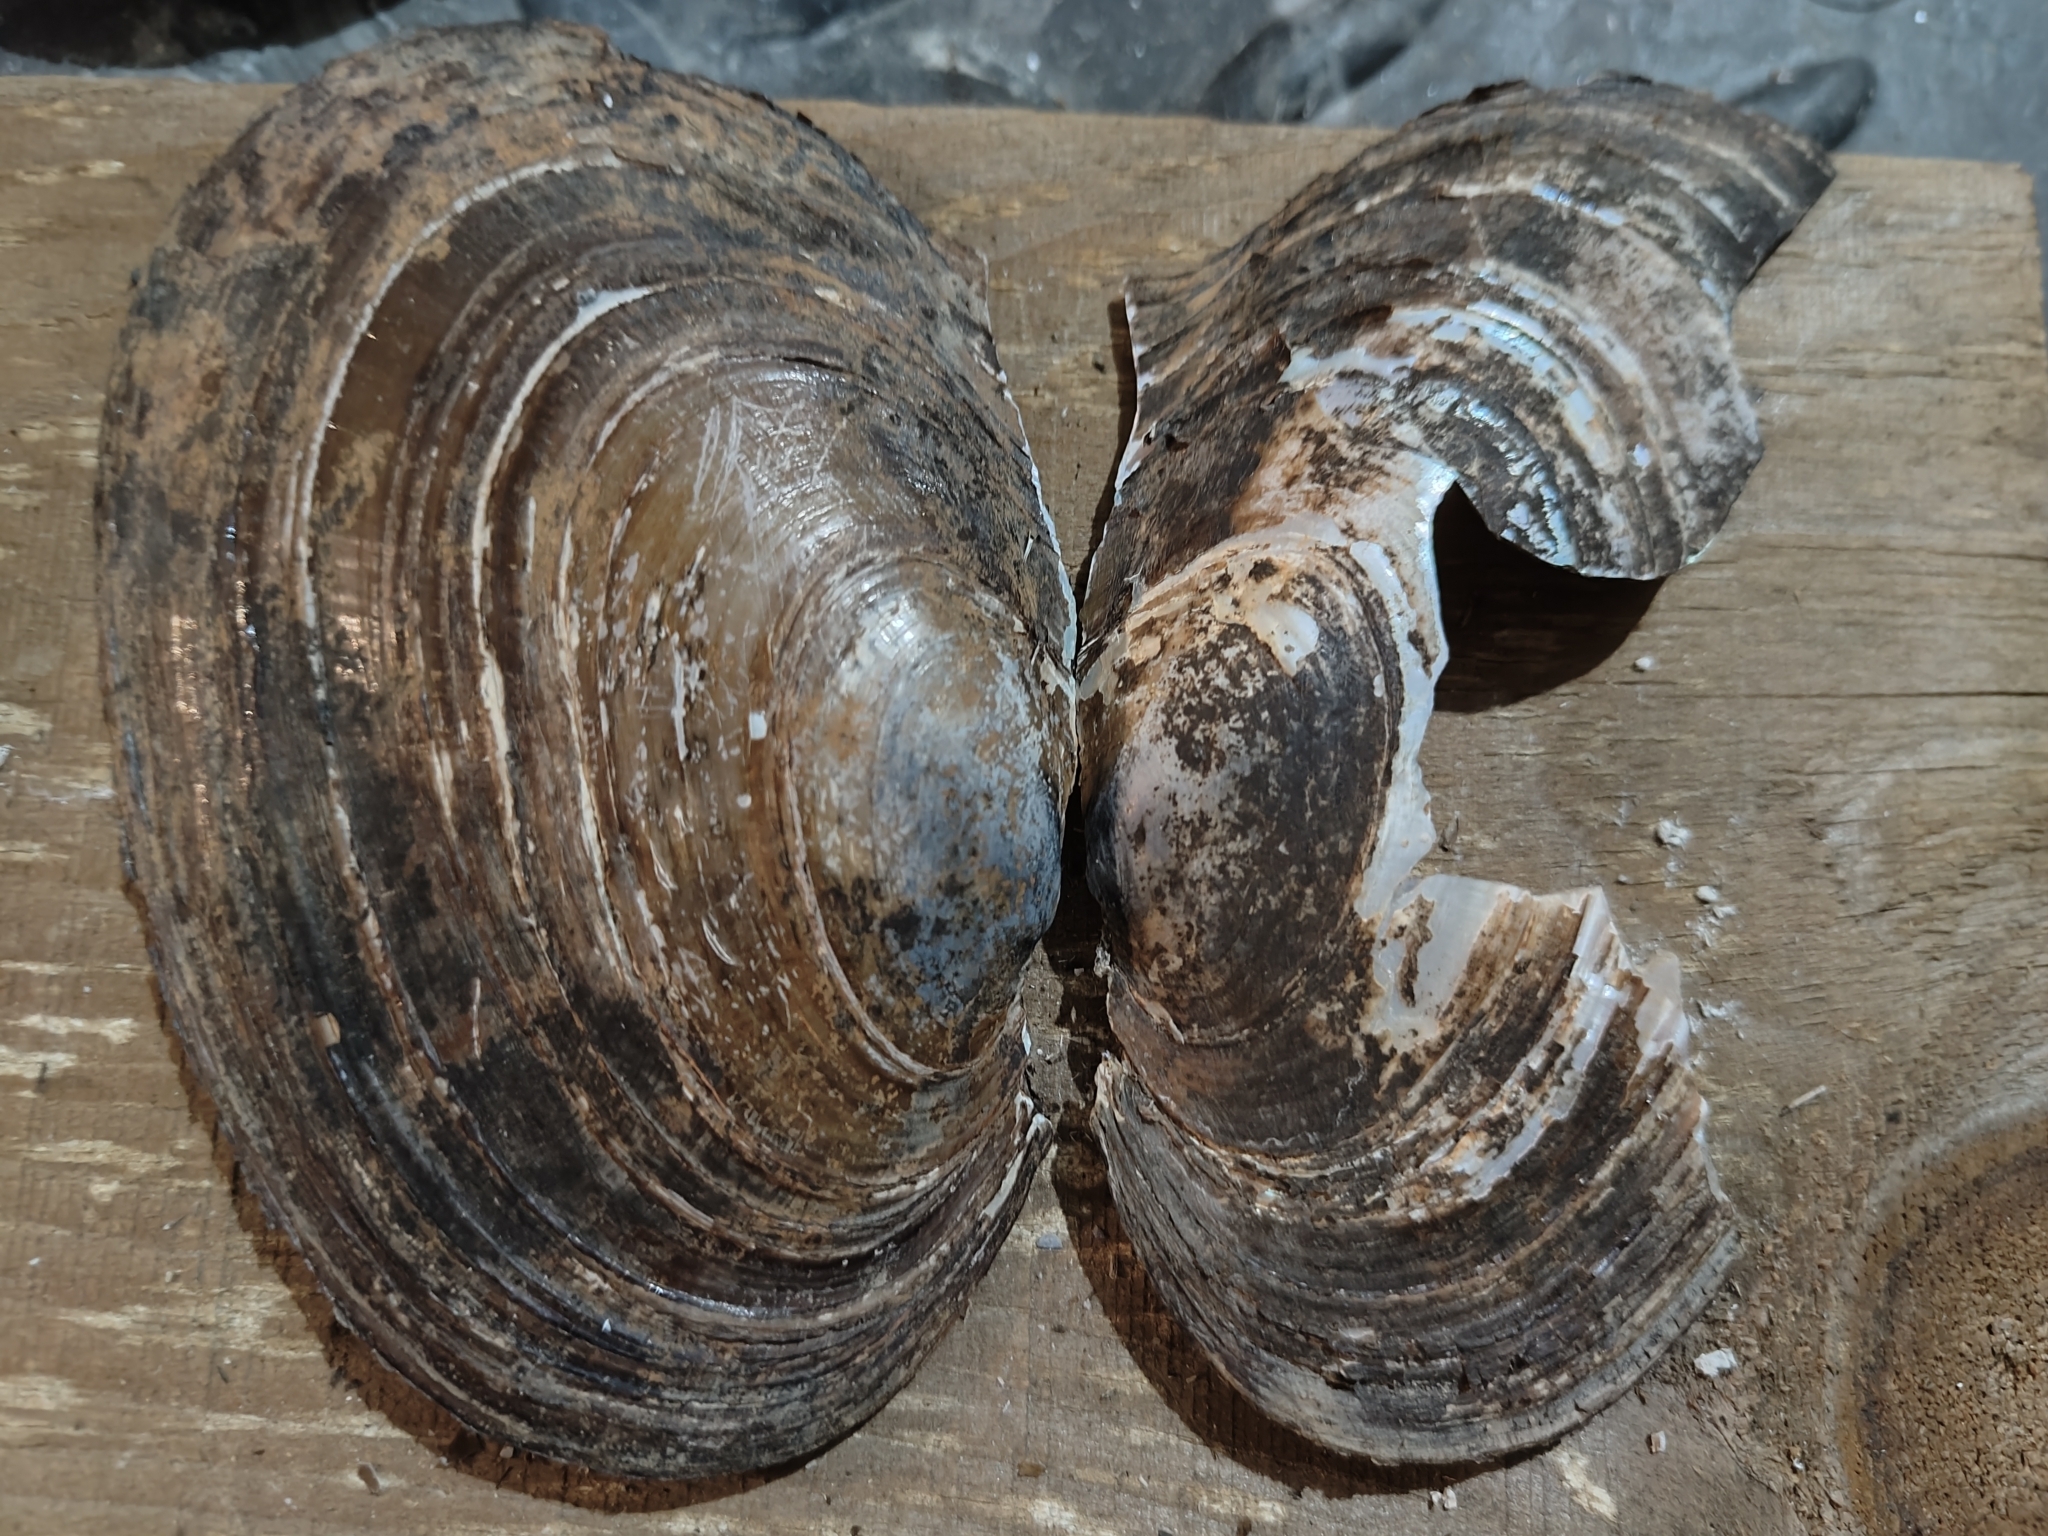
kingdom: Animalia
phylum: Mollusca
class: Bivalvia
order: Unionida
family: Unionidae
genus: Potamilus
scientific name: Potamilus ohiensis
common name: Pink papershell
